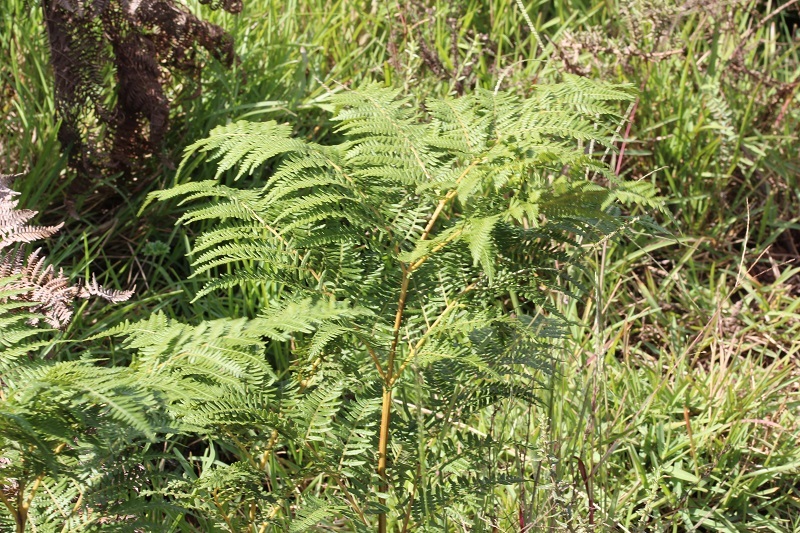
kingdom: Plantae
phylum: Tracheophyta
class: Polypodiopsida
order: Polypodiales
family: Dennstaedtiaceae
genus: Pteridium
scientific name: Pteridium aquilinum
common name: Bracken
